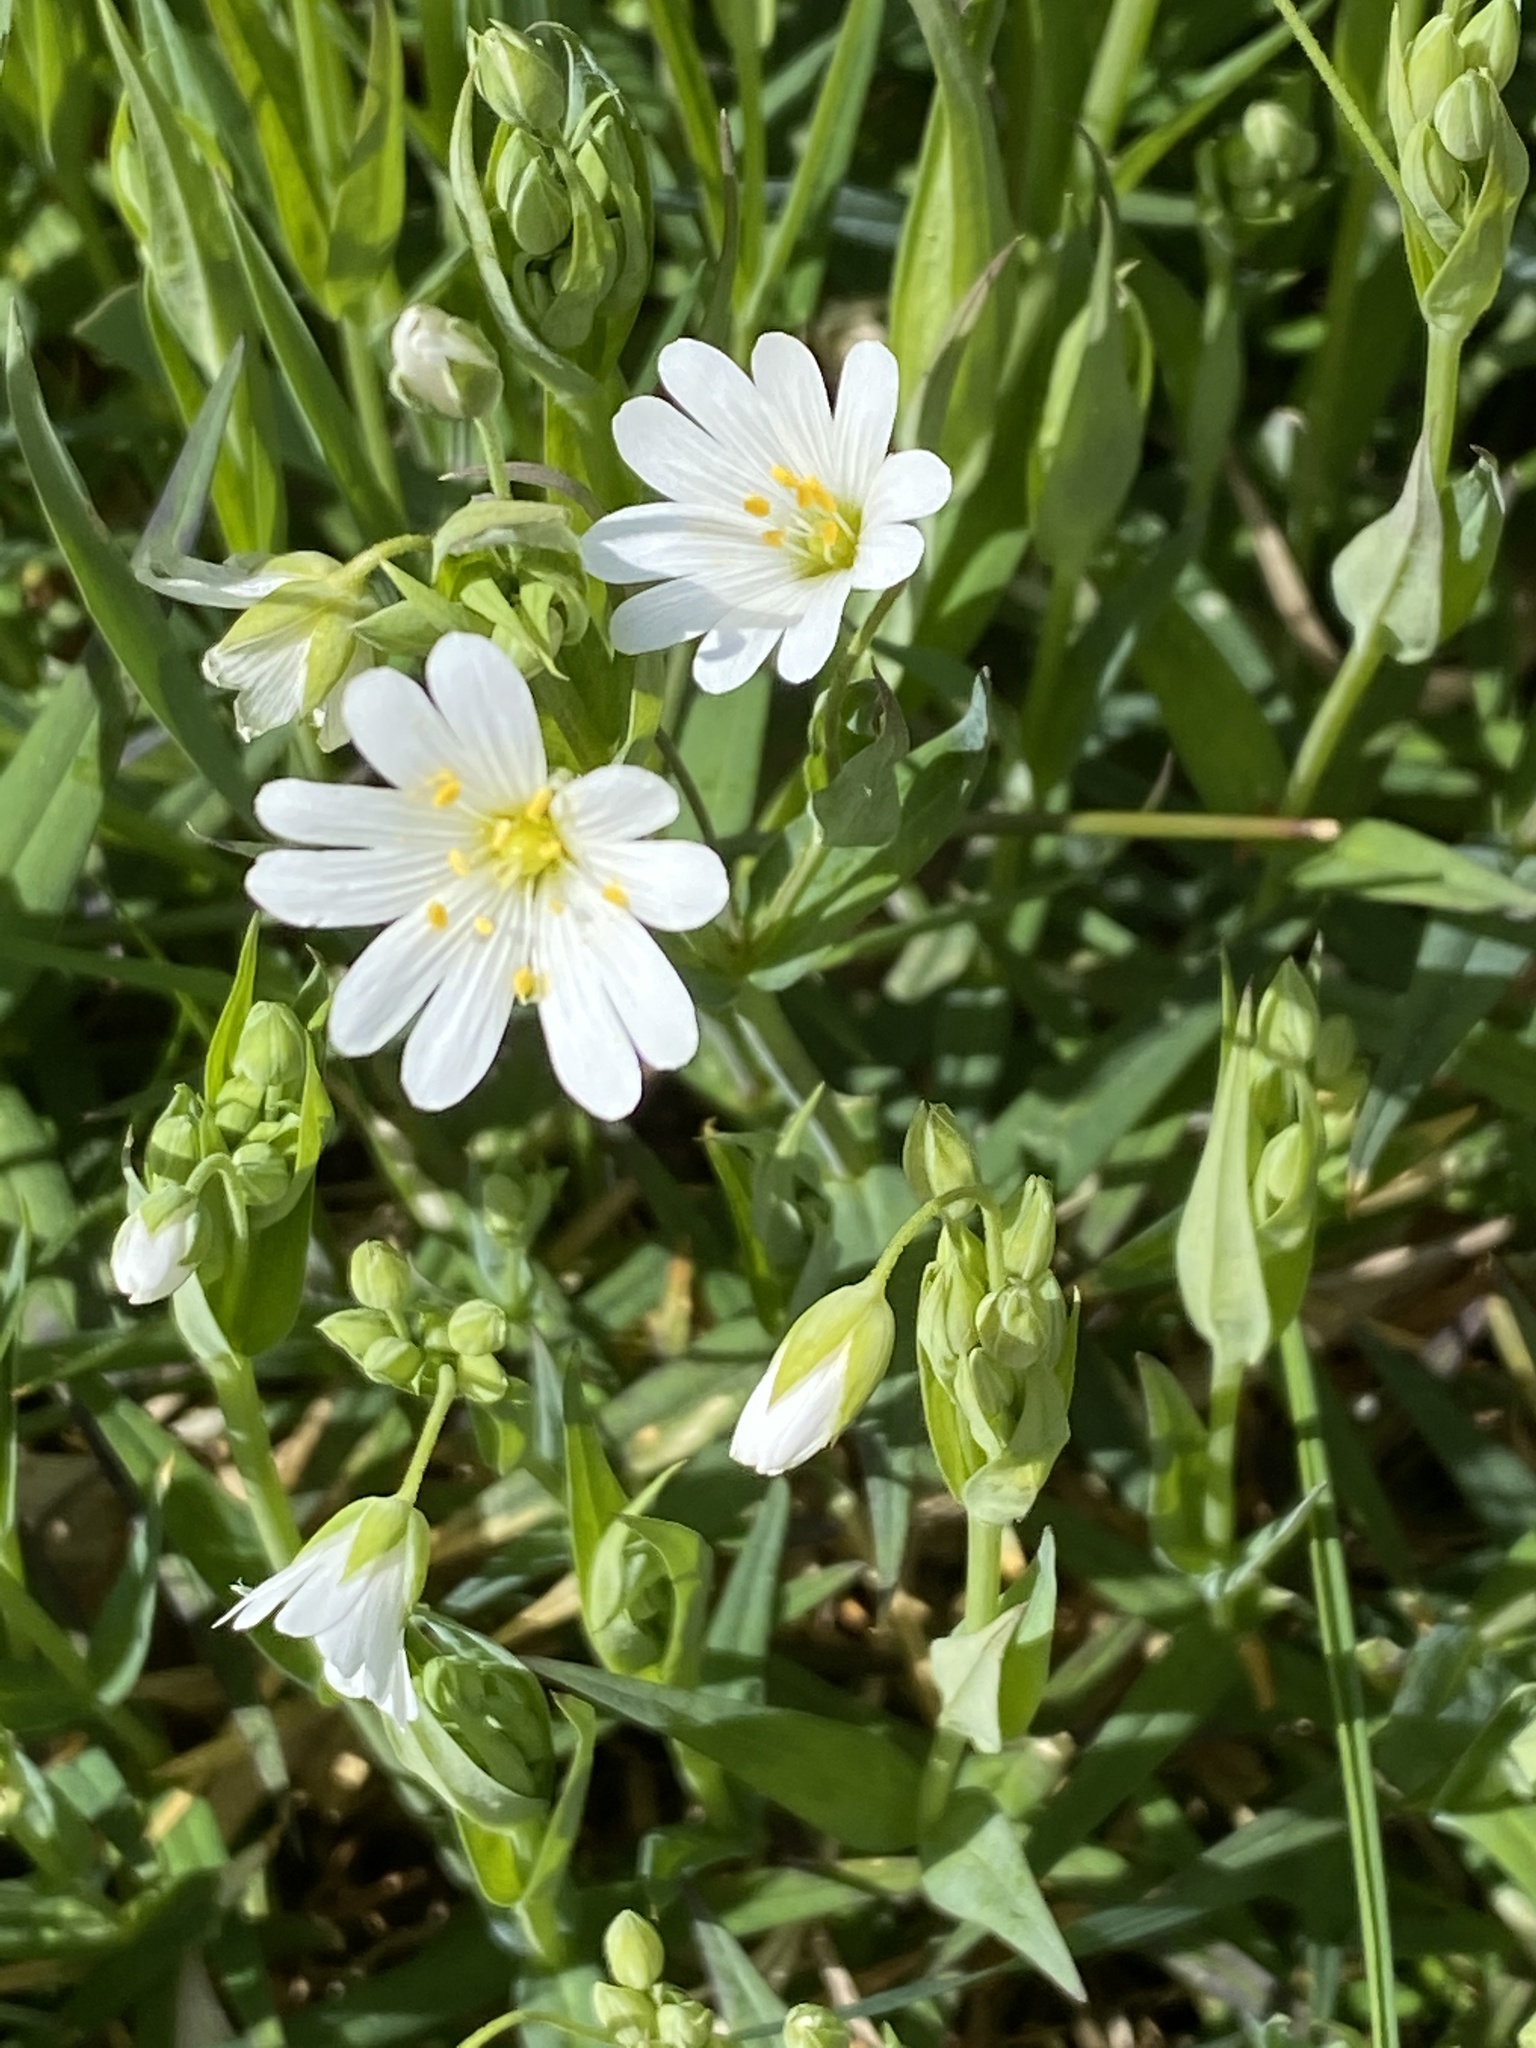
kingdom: Plantae
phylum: Tracheophyta
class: Magnoliopsida
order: Caryophyllales
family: Caryophyllaceae
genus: Rabelera
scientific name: Rabelera holostea
